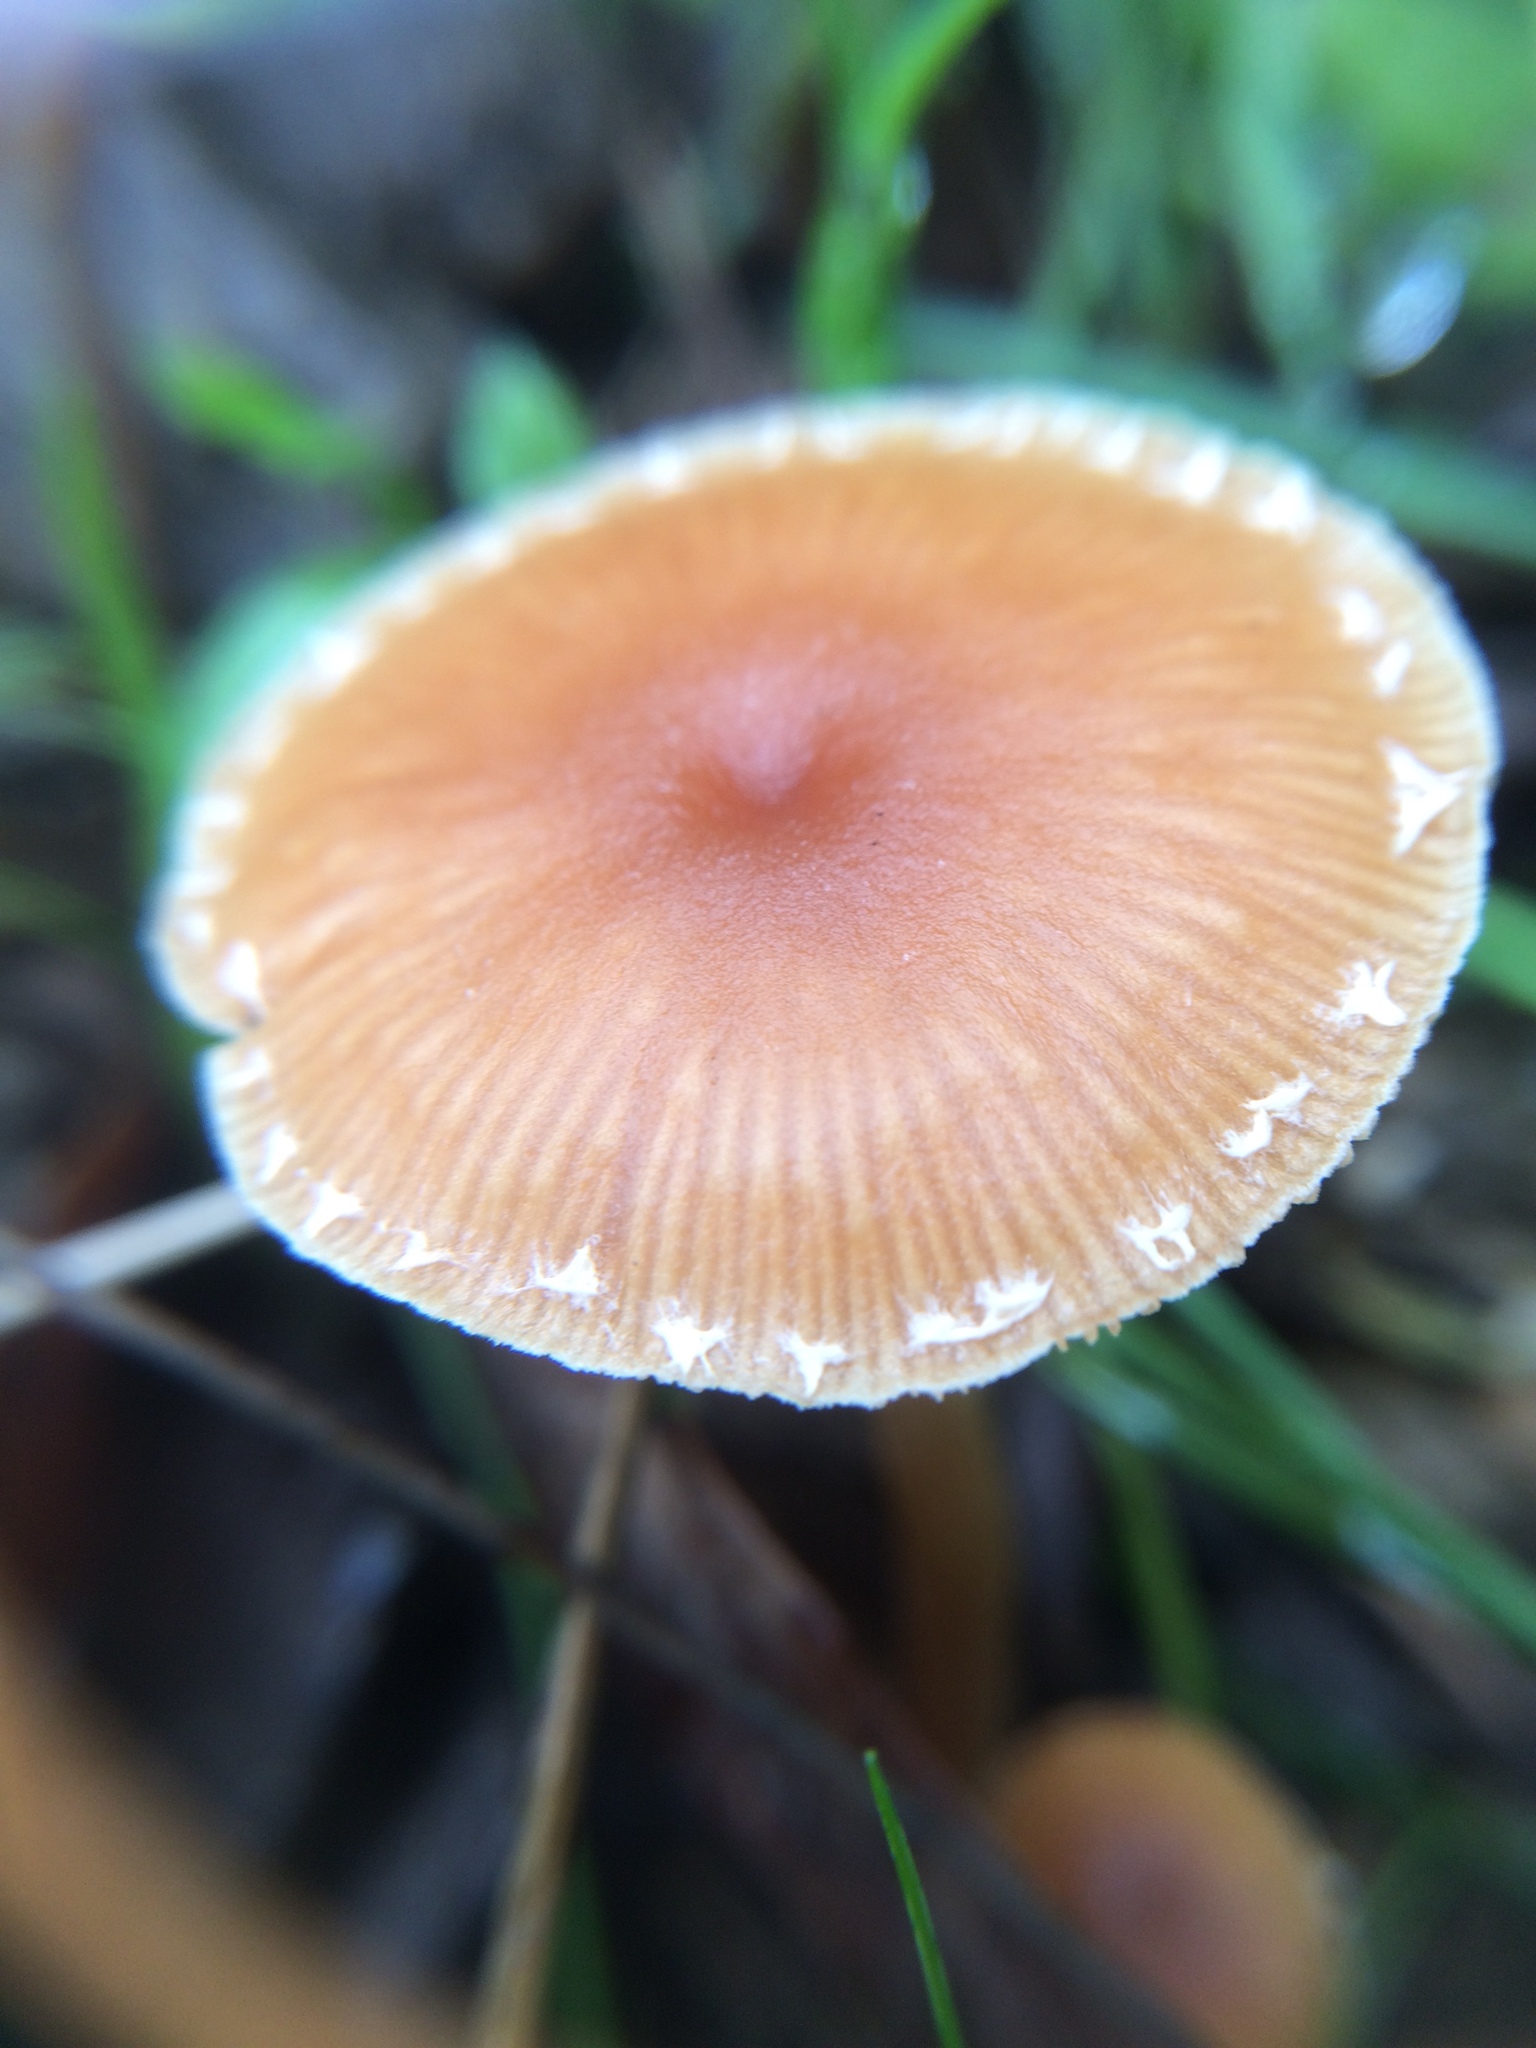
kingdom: Fungi
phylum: Basidiomycota
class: Agaricomycetes
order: Agaricales
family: Tubariaceae
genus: Tubaria
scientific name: Tubaria furfuracea
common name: Scurfy twiglet
